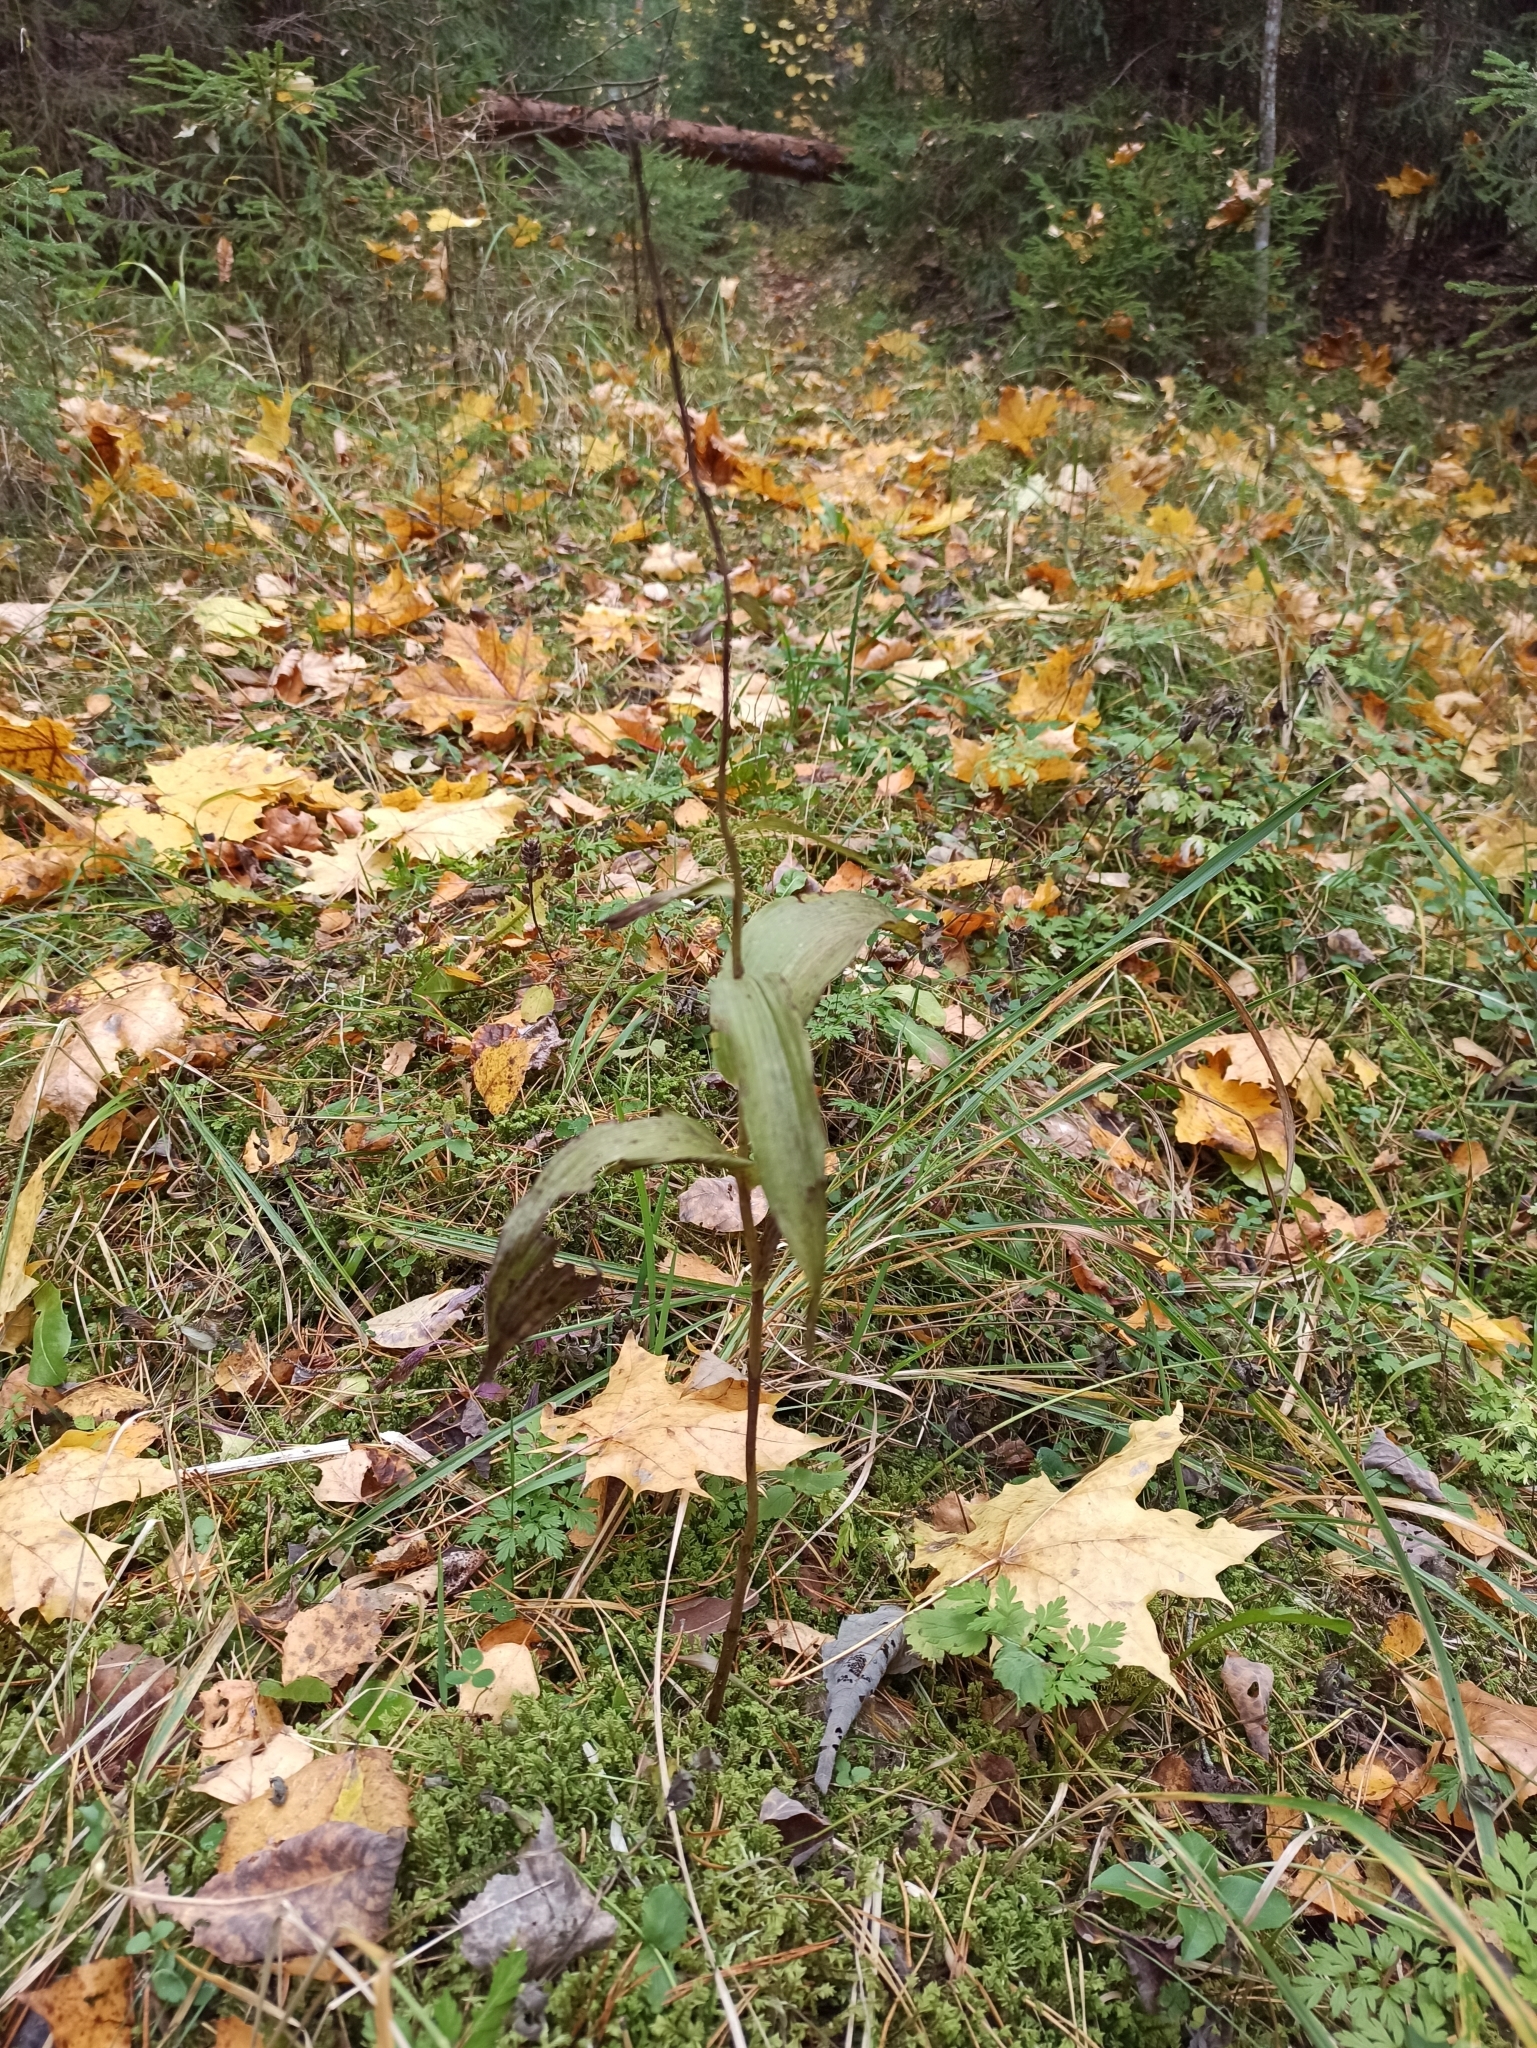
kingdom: Plantae
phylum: Tracheophyta
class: Liliopsida
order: Asparagales
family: Orchidaceae
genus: Epipactis
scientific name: Epipactis helleborine
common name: Broad-leaved helleborine
